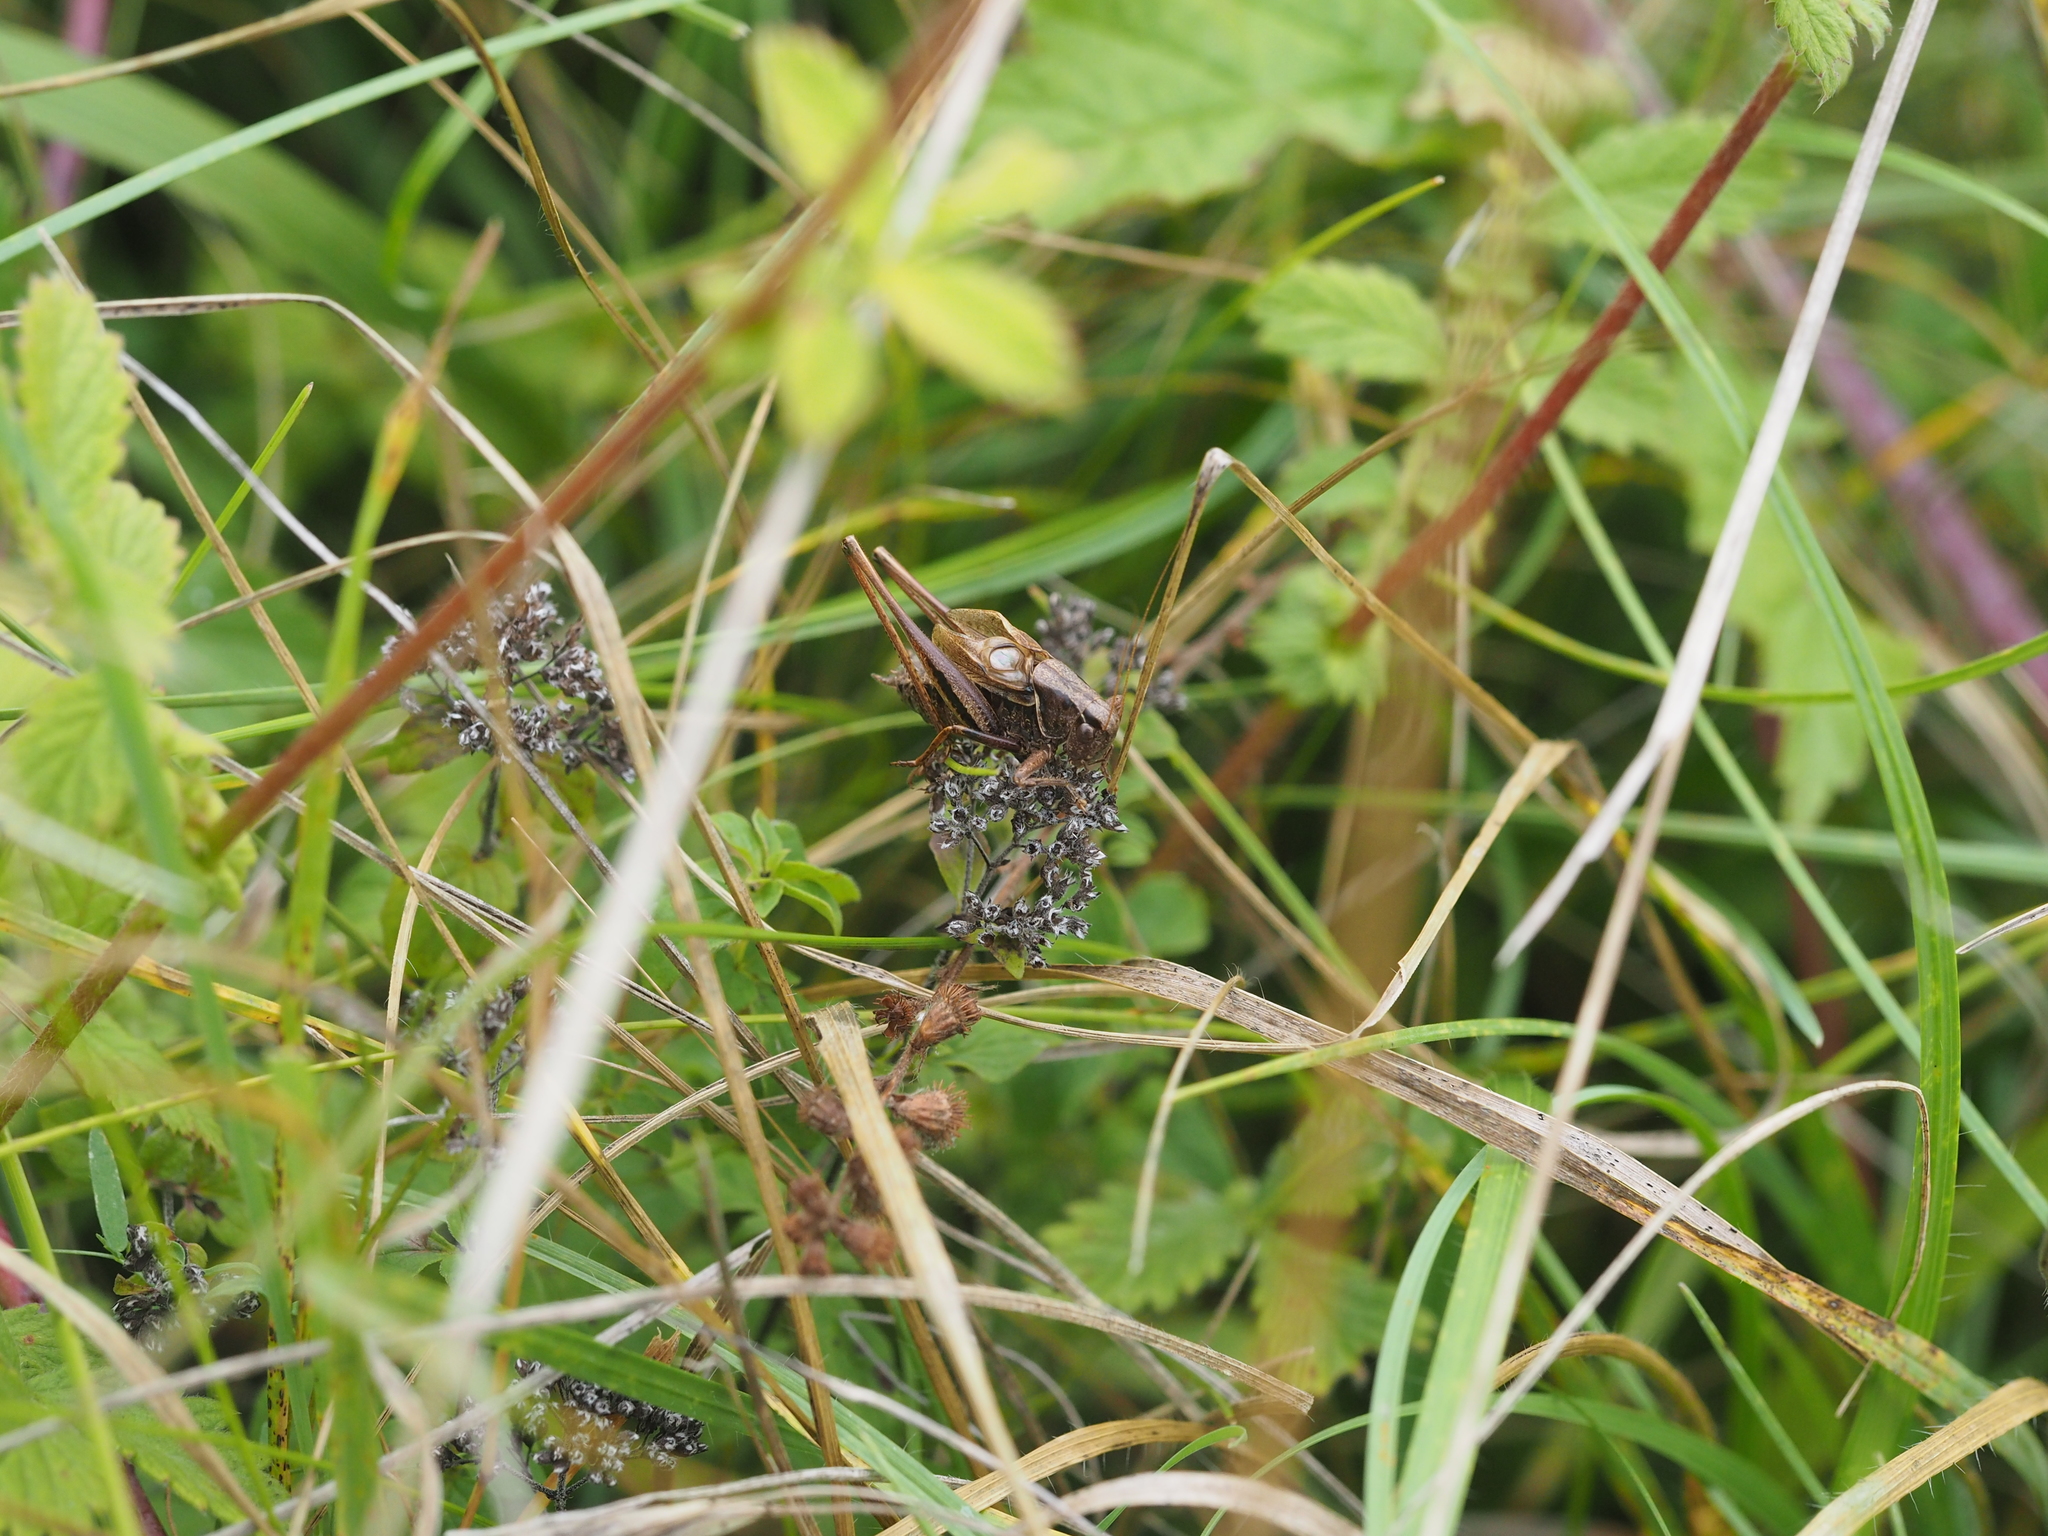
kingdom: Animalia
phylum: Arthropoda
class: Insecta
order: Orthoptera
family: Tettigoniidae
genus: Metrioptera
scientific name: Metrioptera brachyptera
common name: Bog bush-cricket
